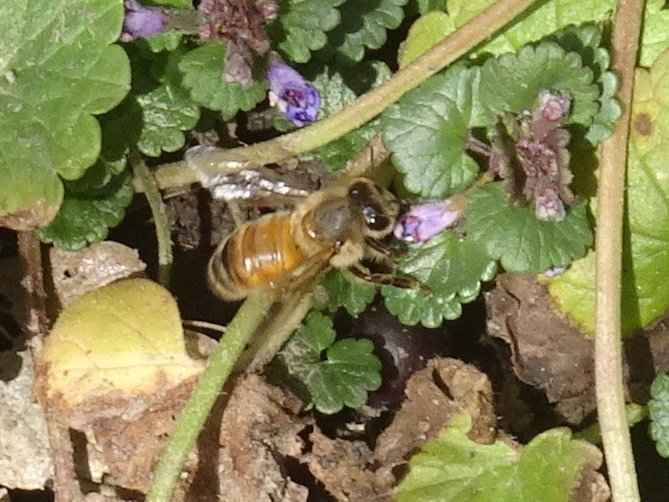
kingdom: Animalia
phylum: Arthropoda
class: Insecta
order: Hymenoptera
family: Apidae
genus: Apis
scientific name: Apis mellifera
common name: Honey bee
